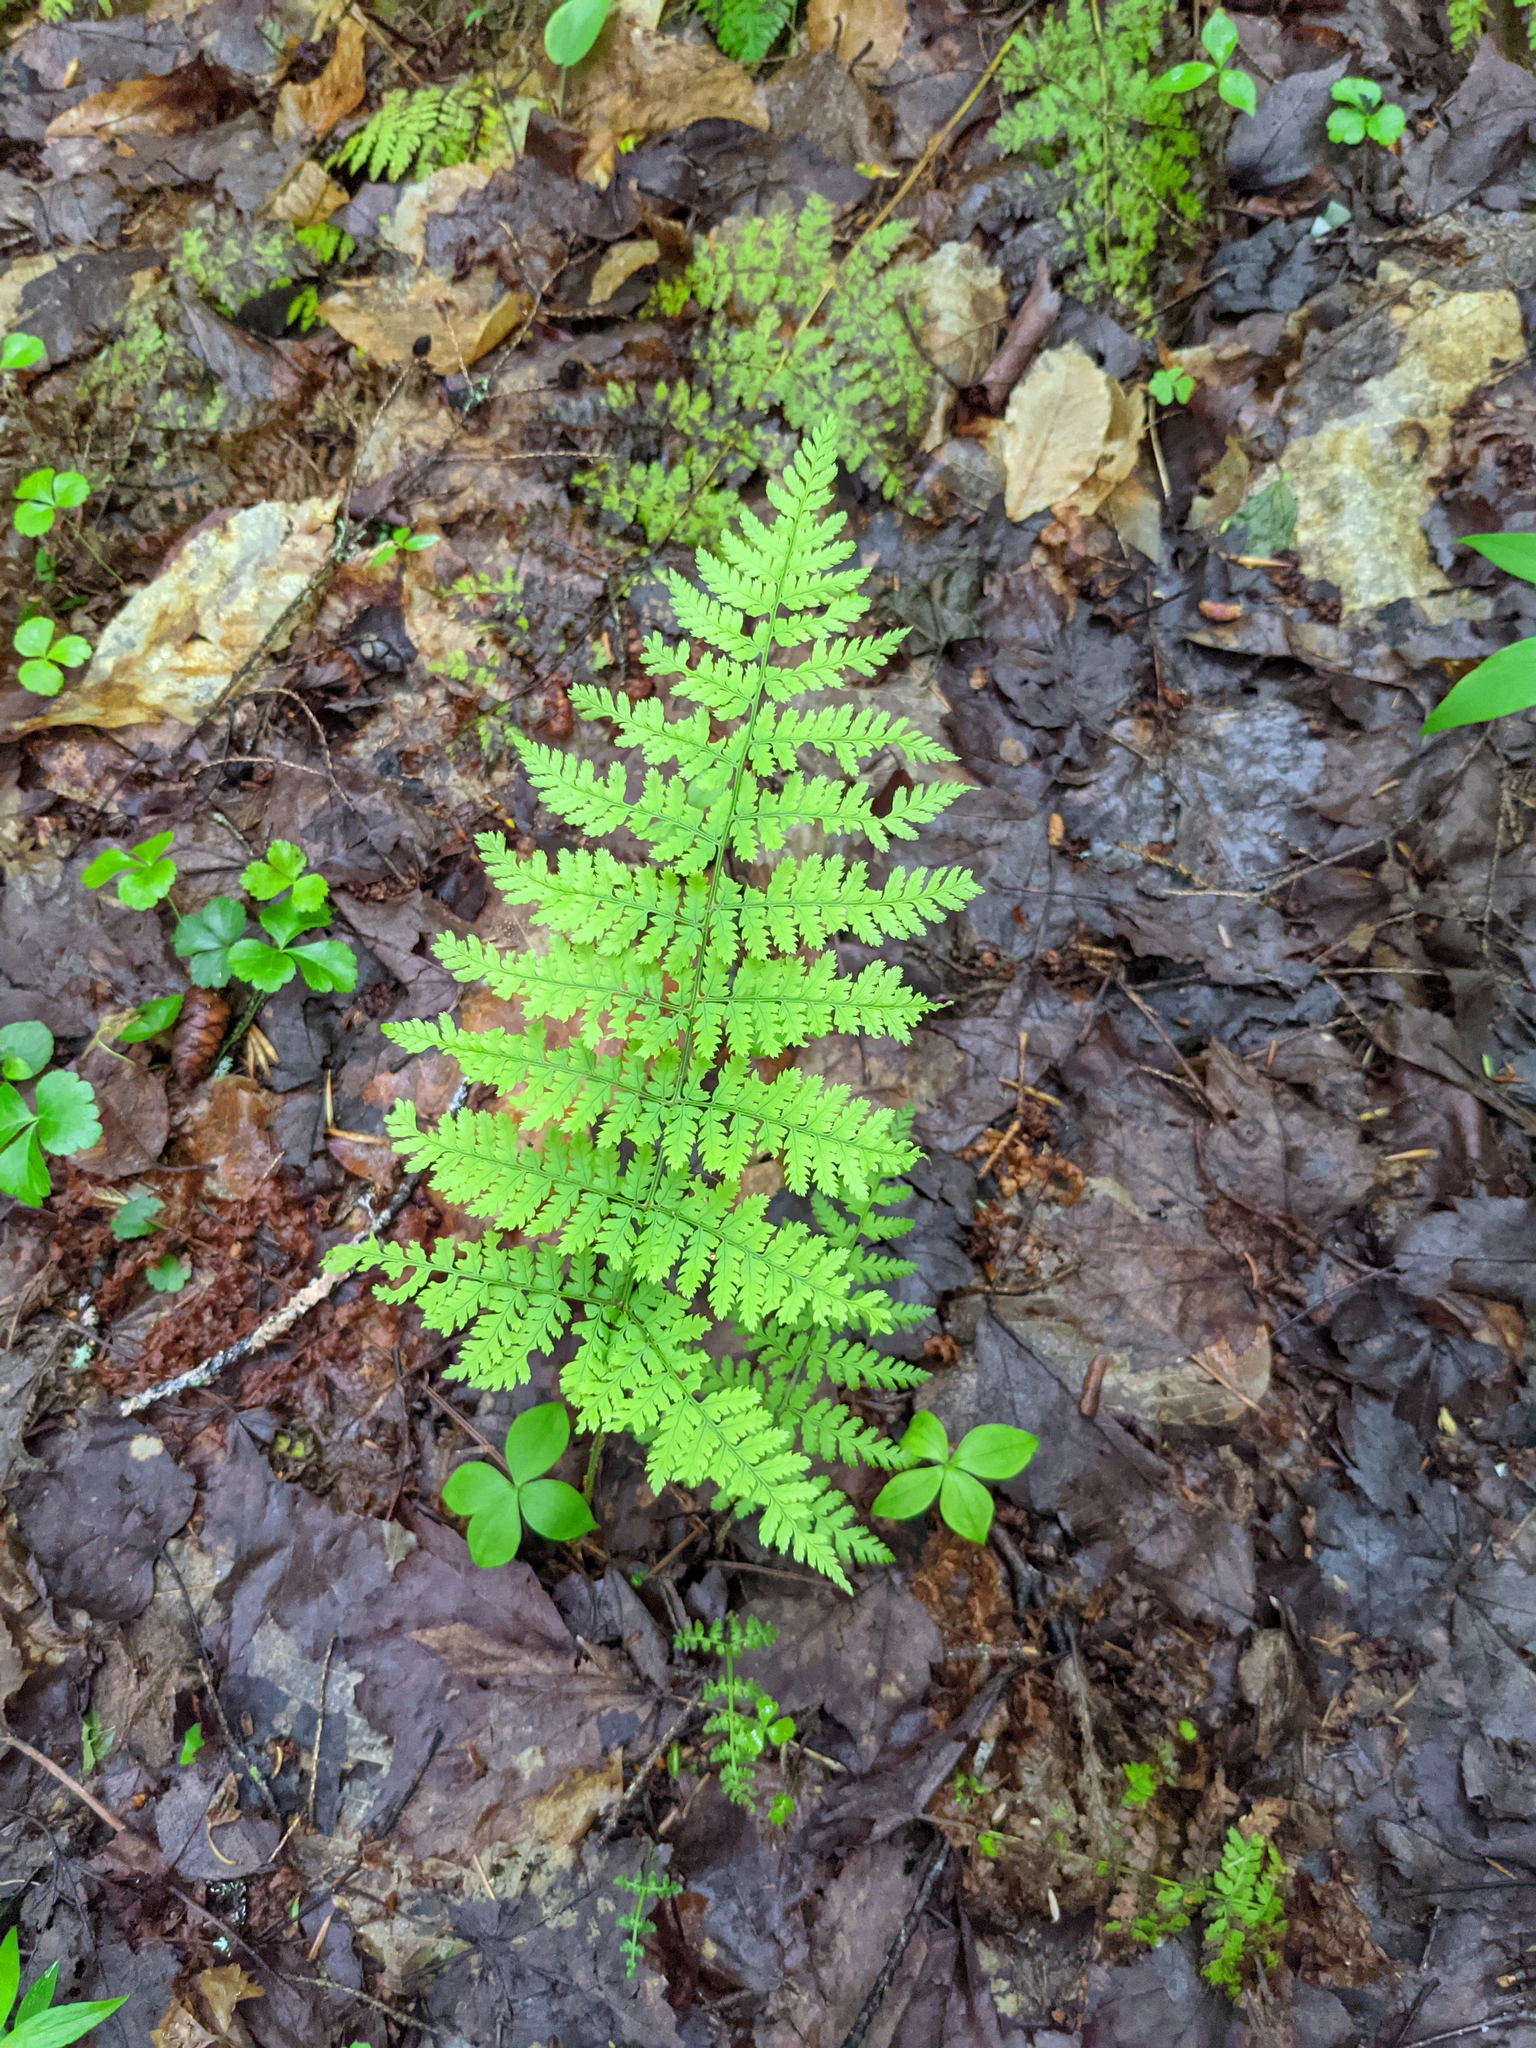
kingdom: Plantae
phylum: Tracheophyta
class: Polypodiopsida
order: Polypodiales
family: Dryopteridaceae
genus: Dryopteris
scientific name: Dryopteris intermedia
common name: Evergreen wood fern
